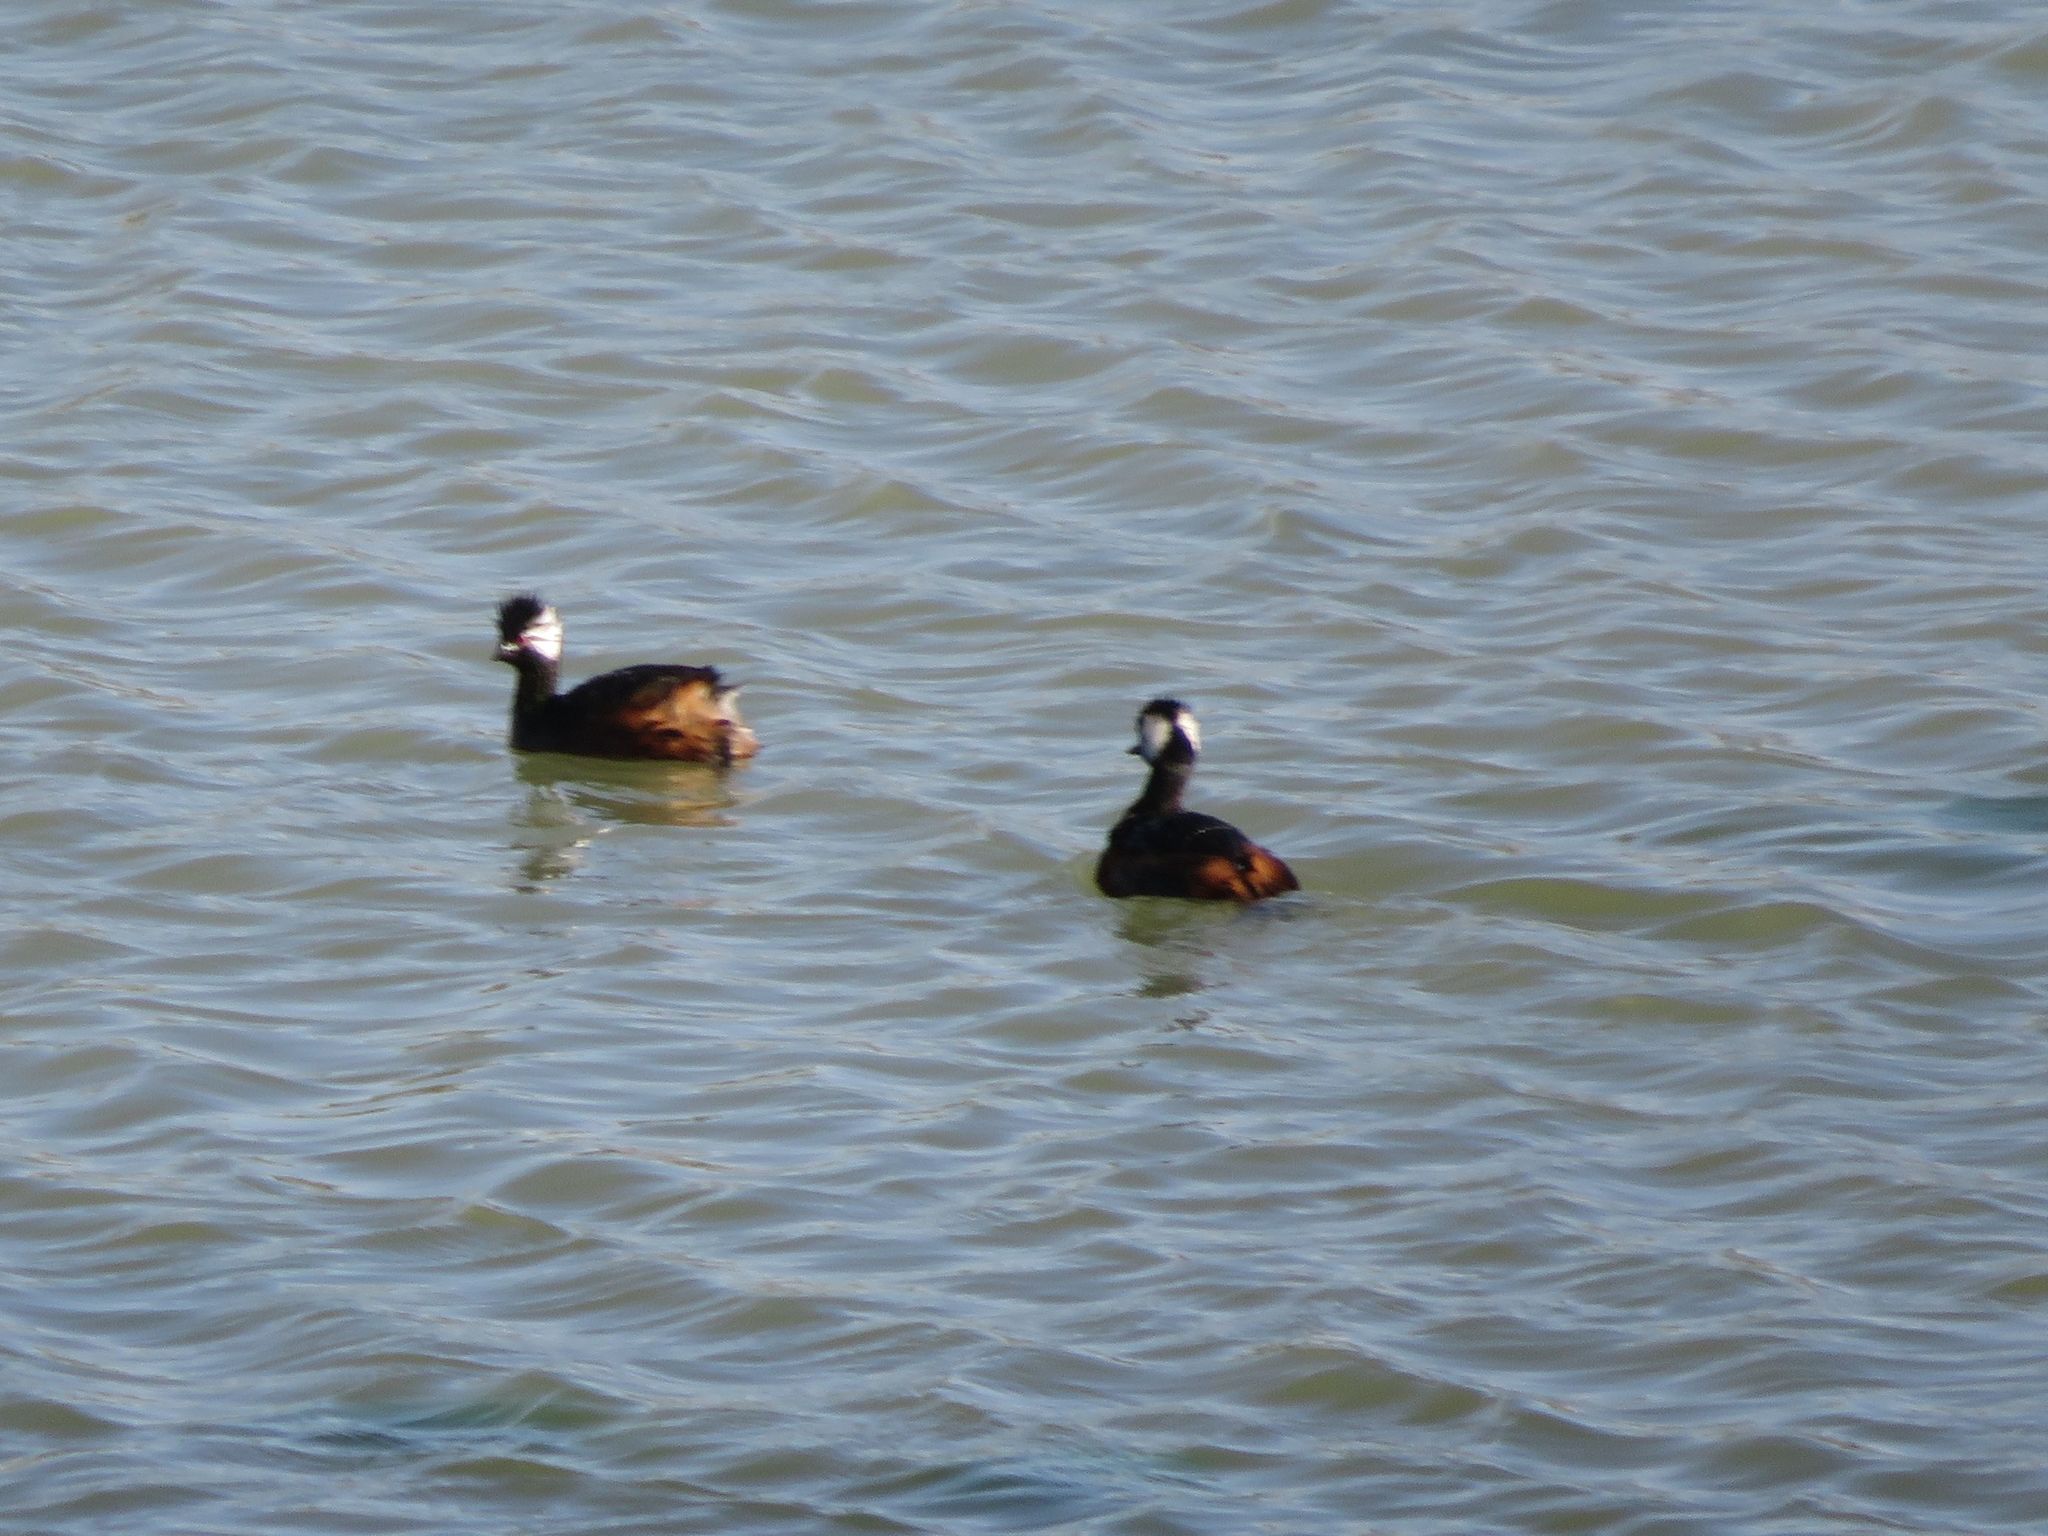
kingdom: Animalia
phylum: Chordata
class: Aves
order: Podicipediformes
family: Podicipedidae
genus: Rollandia
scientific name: Rollandia rolland
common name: White-tufted grebe
